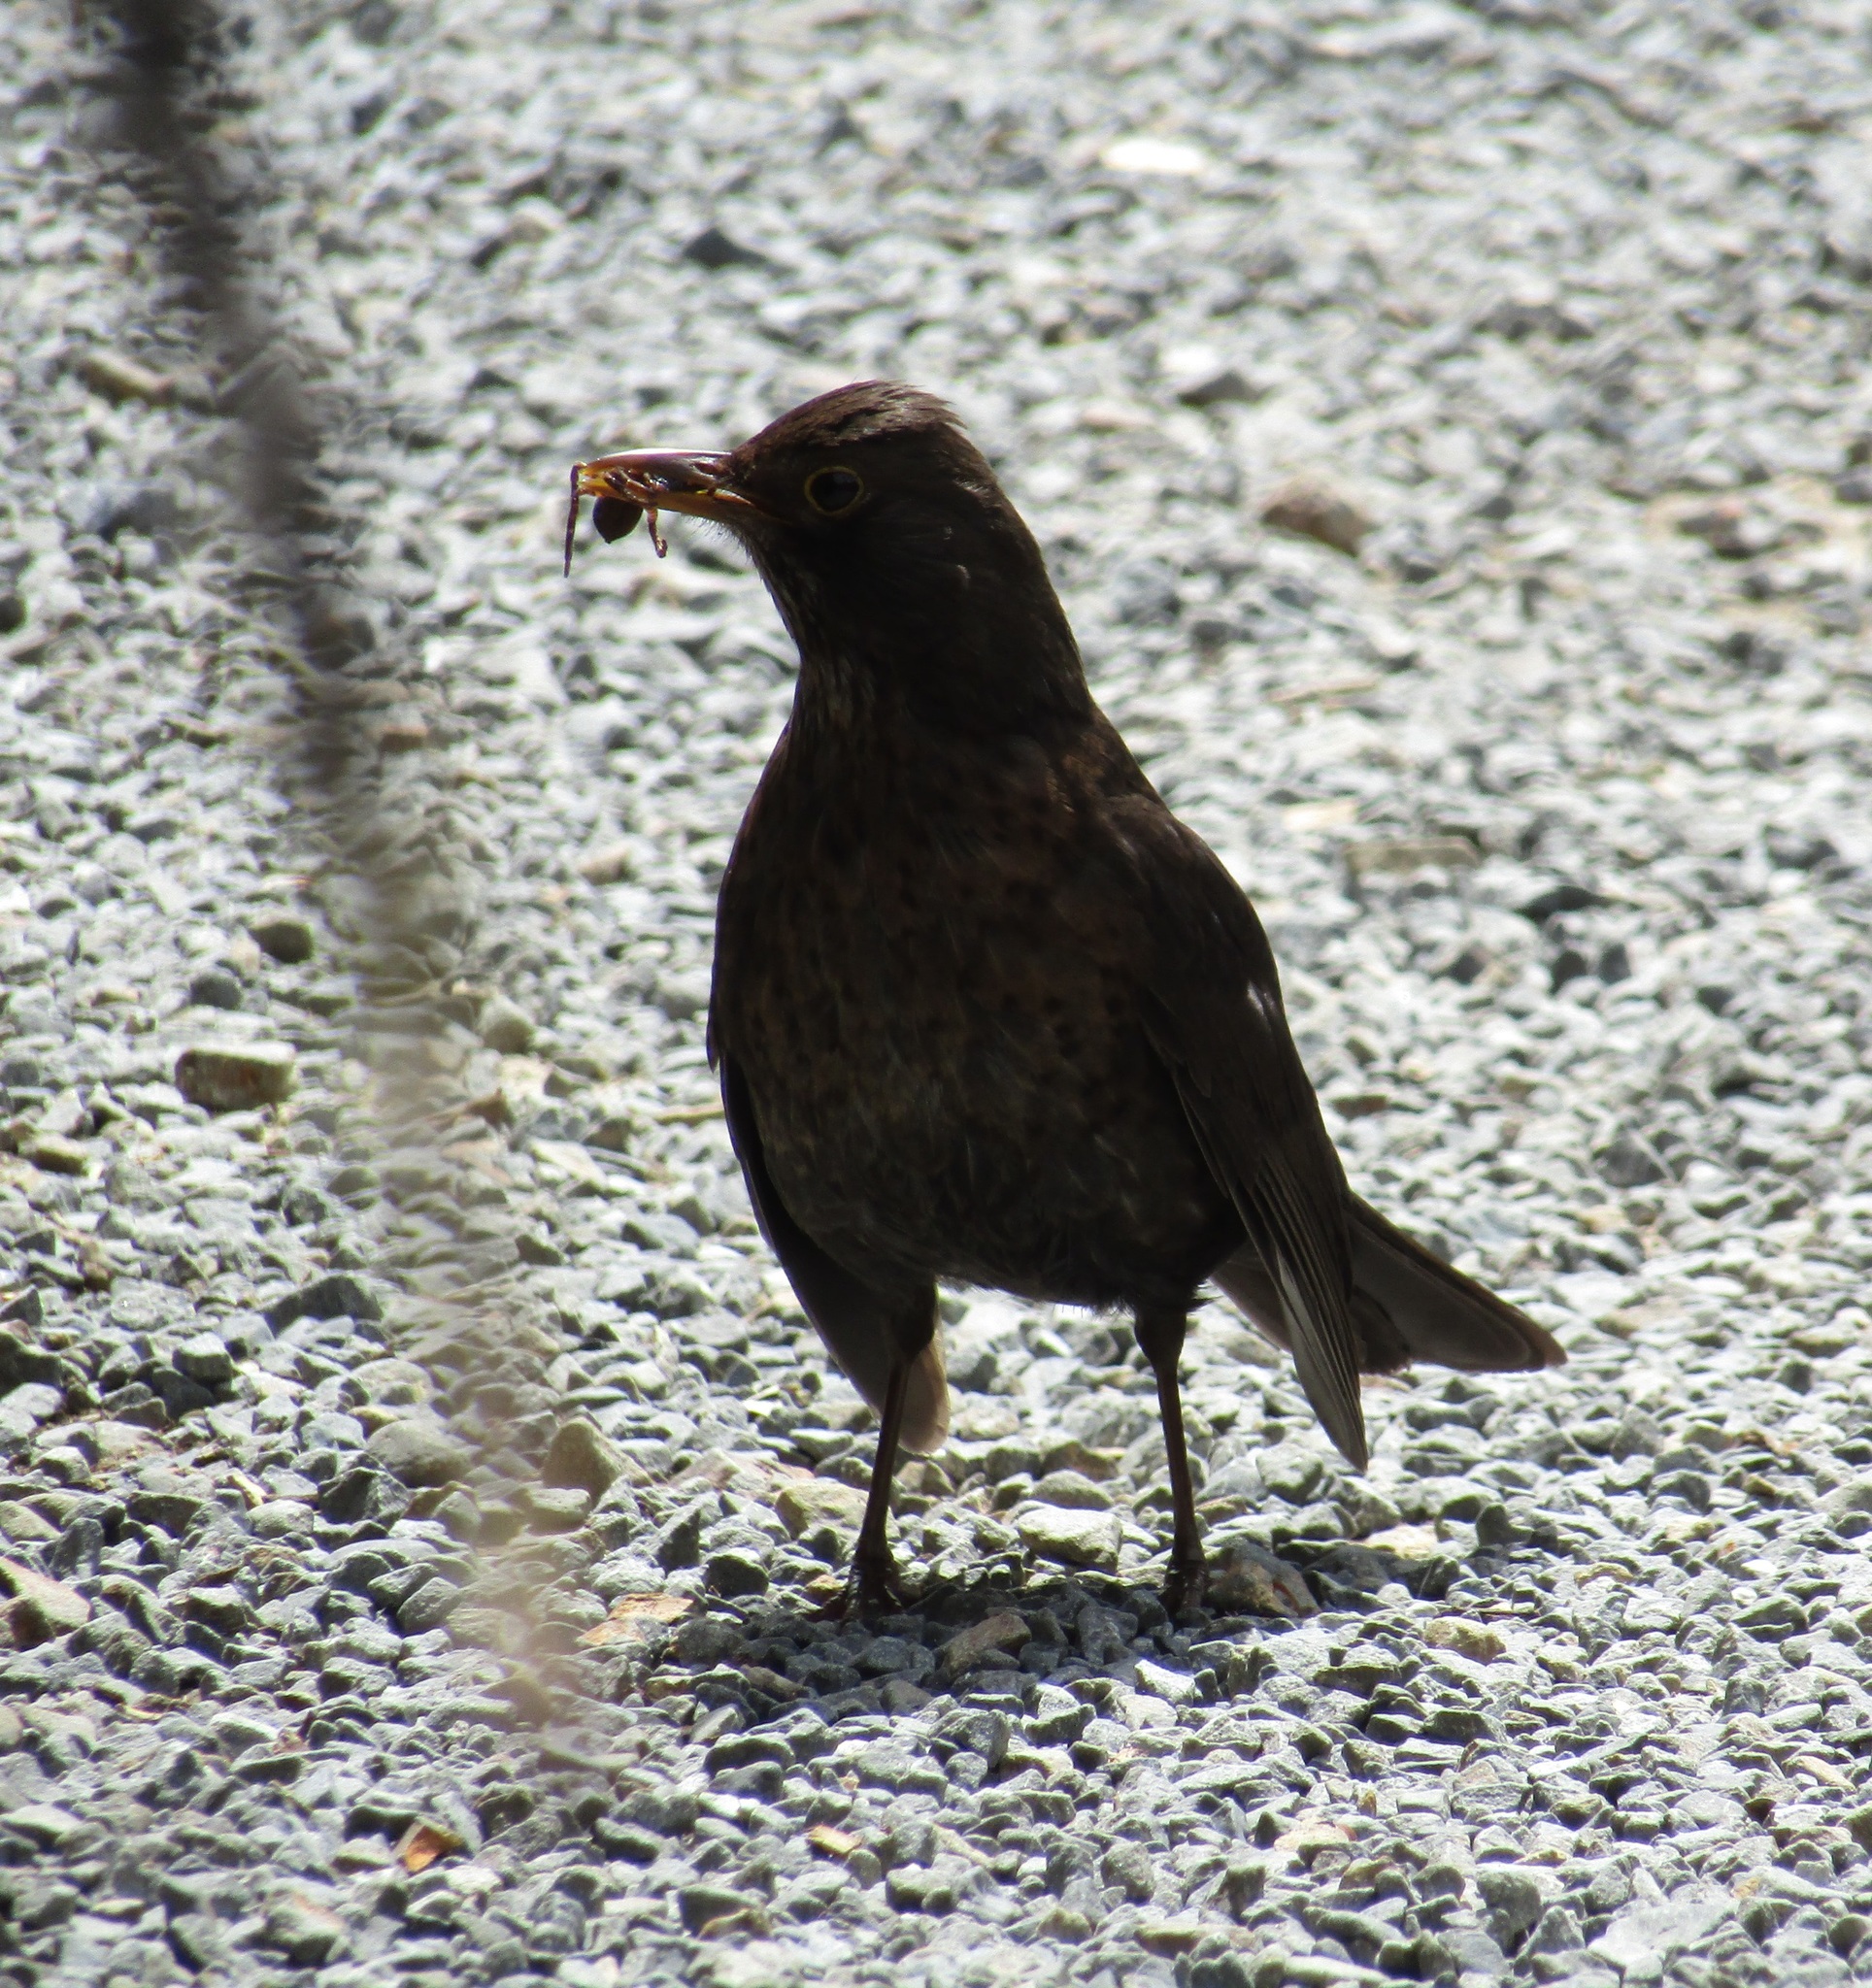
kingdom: Animalia
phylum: Chordata
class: Aves
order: Passeriformes
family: Turdidae
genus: Turdus
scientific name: Turdus merula
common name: Common blackbird
